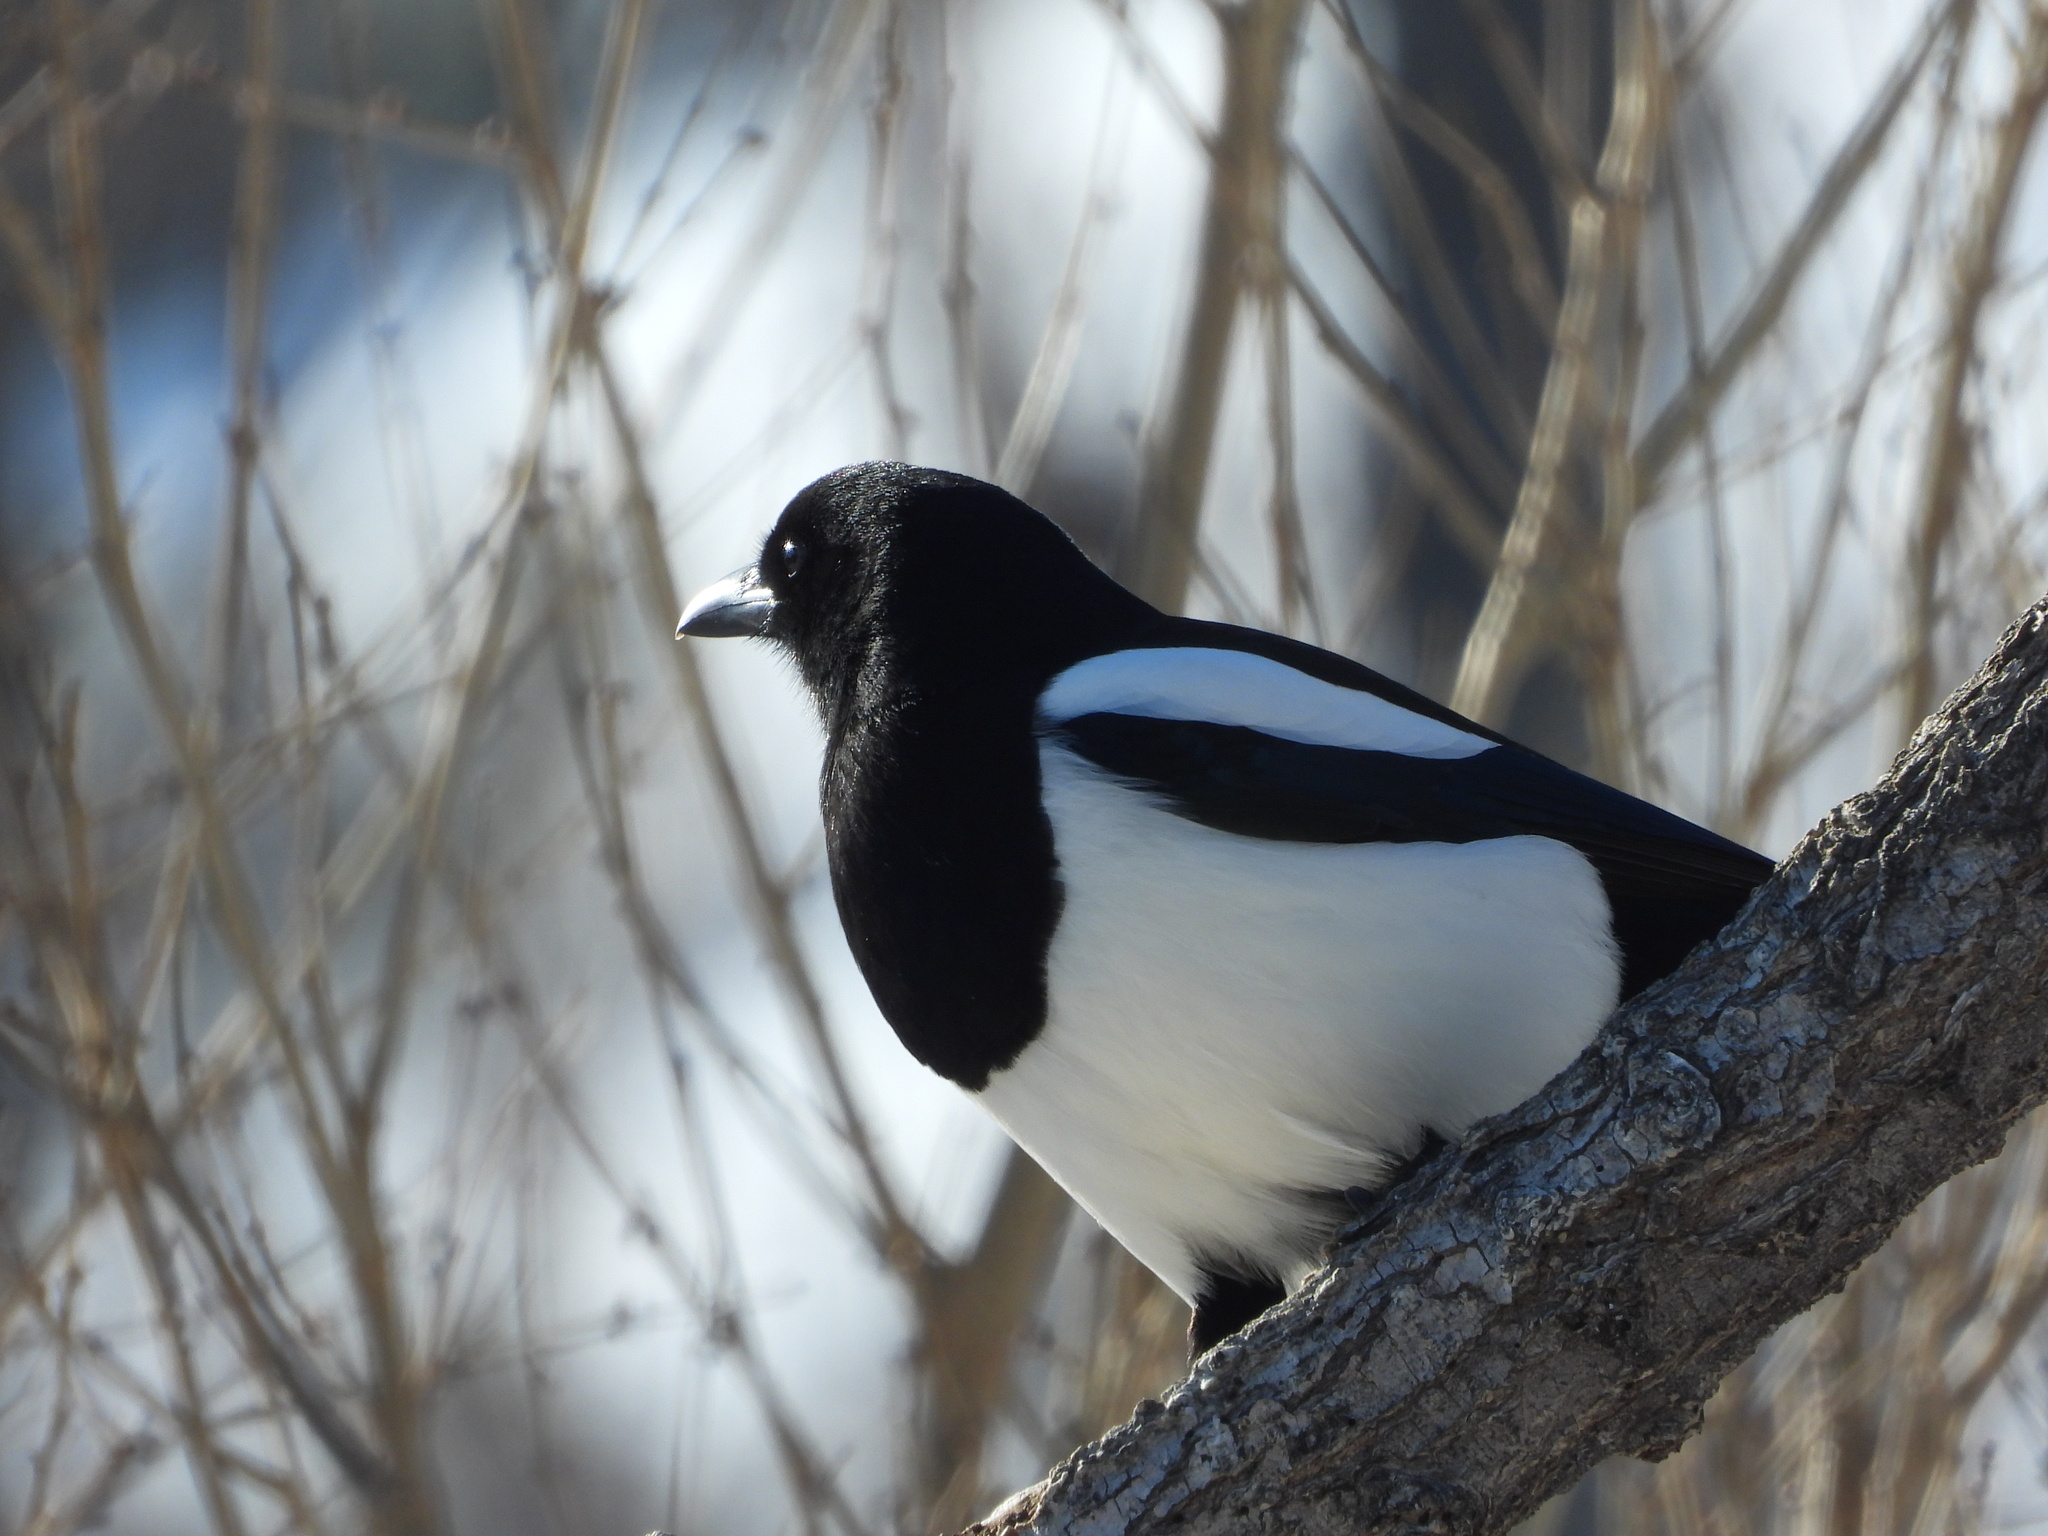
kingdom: Animalia
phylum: Chordata
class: Aves
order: Passeriformes
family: Corvidae
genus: Pica
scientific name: Pica hudsonia
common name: Black-billed magpie
